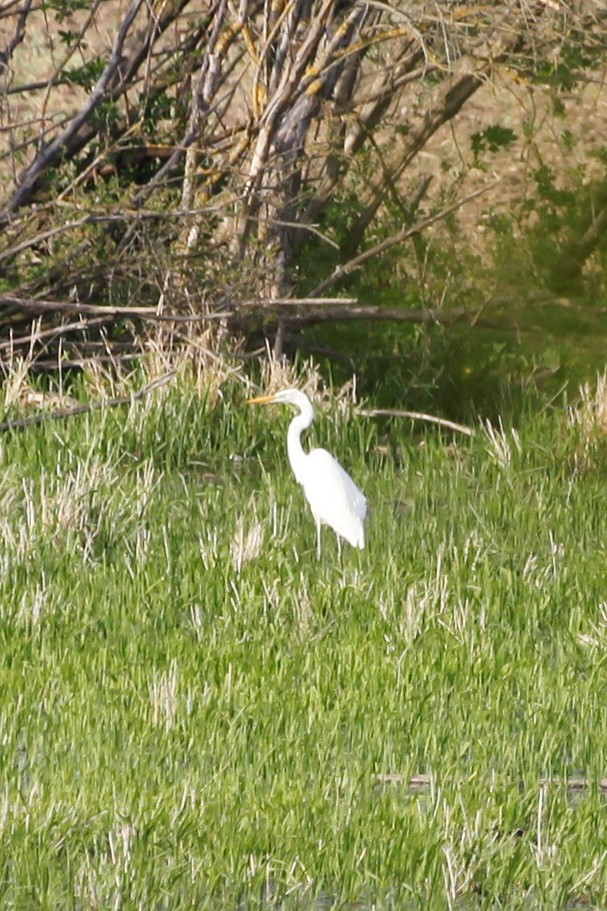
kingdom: Animalia
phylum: Chordata
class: Aves
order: Pelecaniformes
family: Ardeidae
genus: Ardea
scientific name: Ardea alba
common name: Great egret
